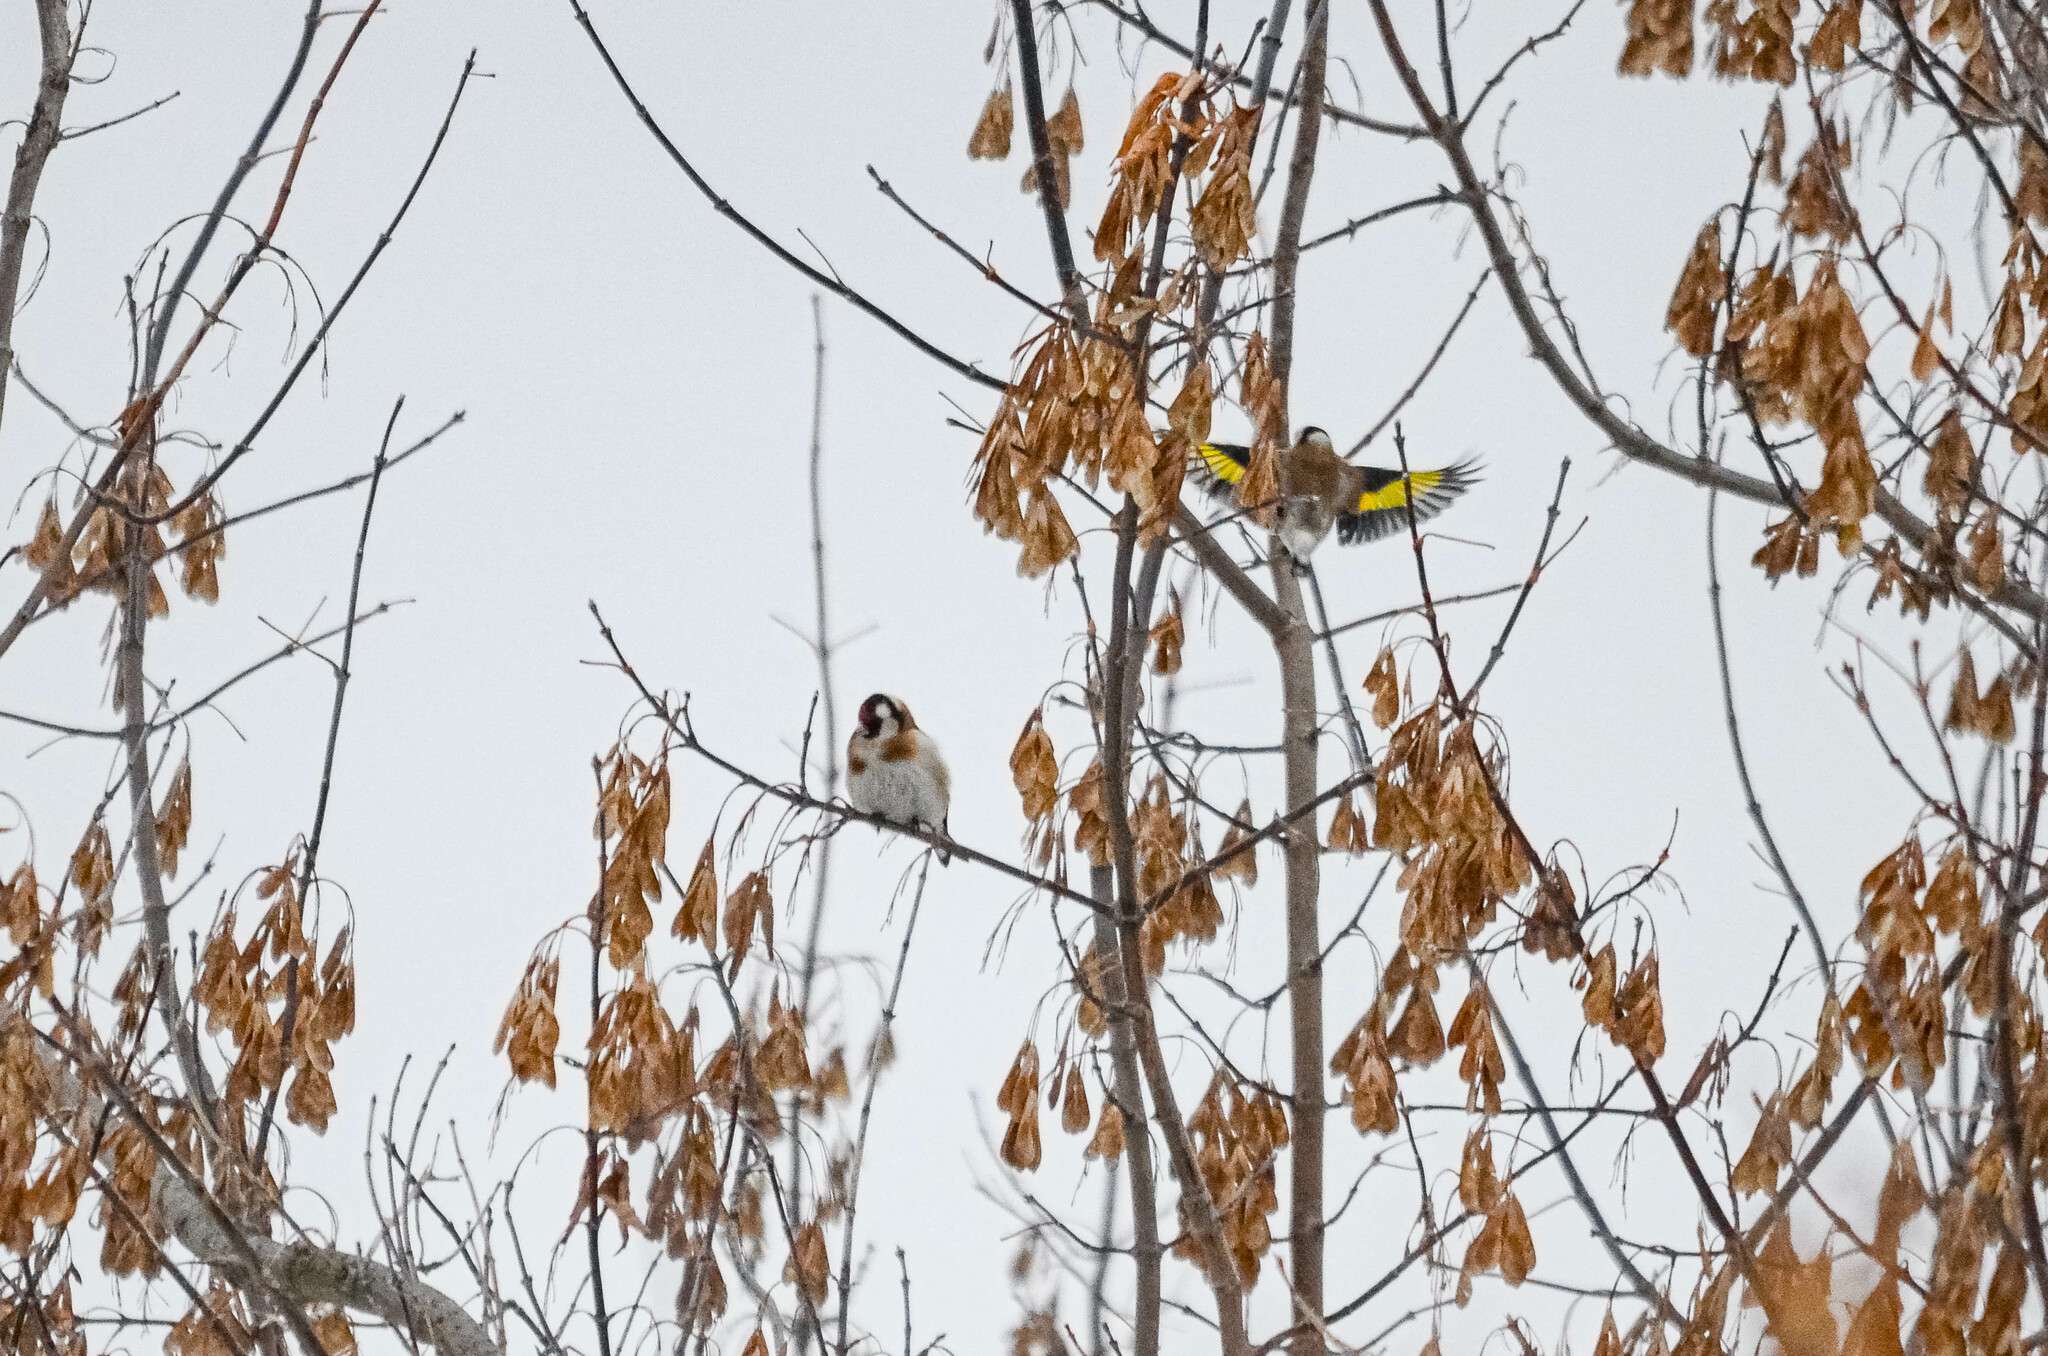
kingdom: Animalia
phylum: Chordata
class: Aves
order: Passeriformes
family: Fringillidae
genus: Carduelis
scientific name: Carduelis carduelis
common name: European goldfinch
